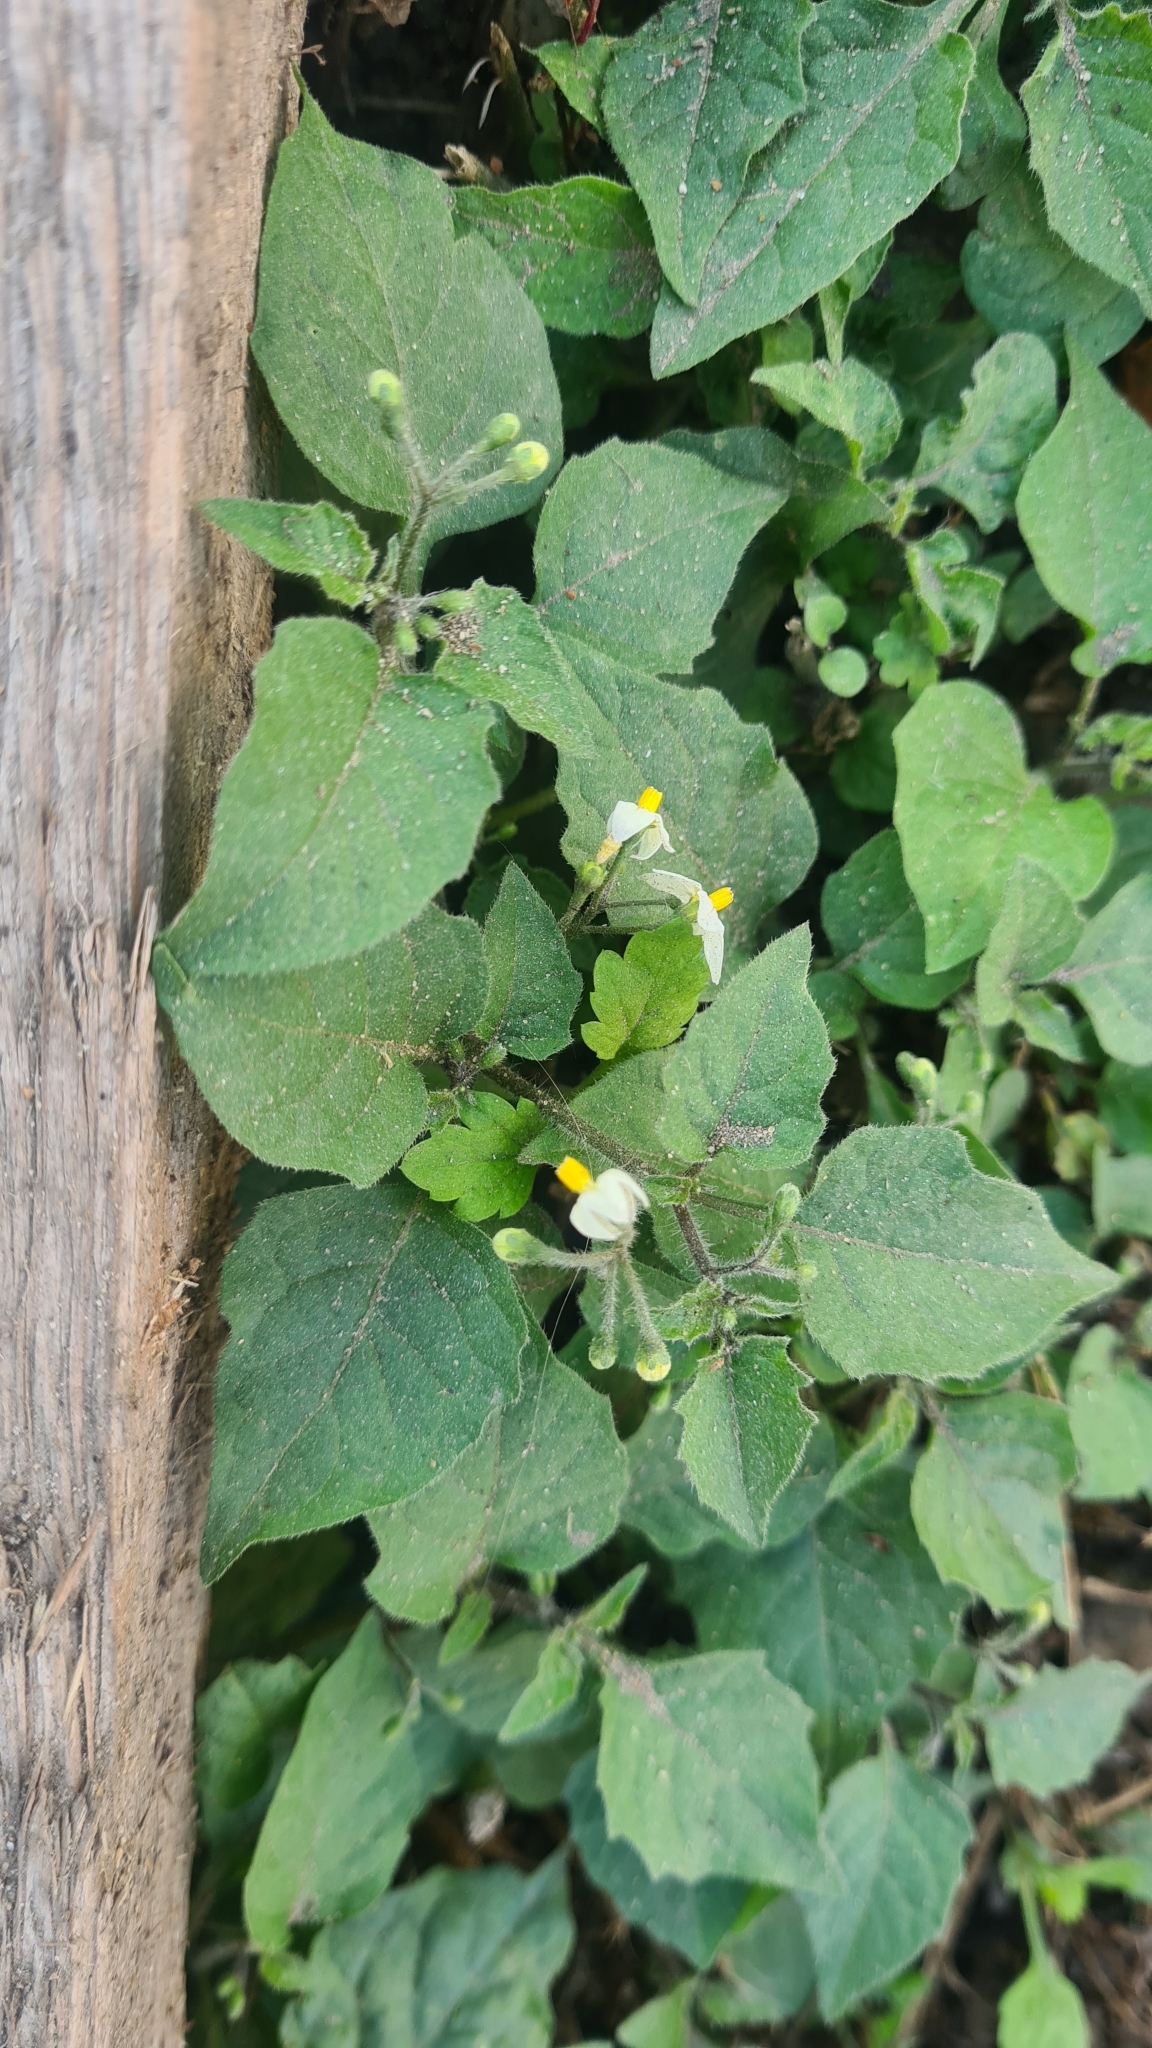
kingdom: Plantae
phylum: Tracheophyta
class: Magnoliopsida
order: Solanales
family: Solanaceae
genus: Solanum
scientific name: Solanum nigrum
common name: Black nightshade
